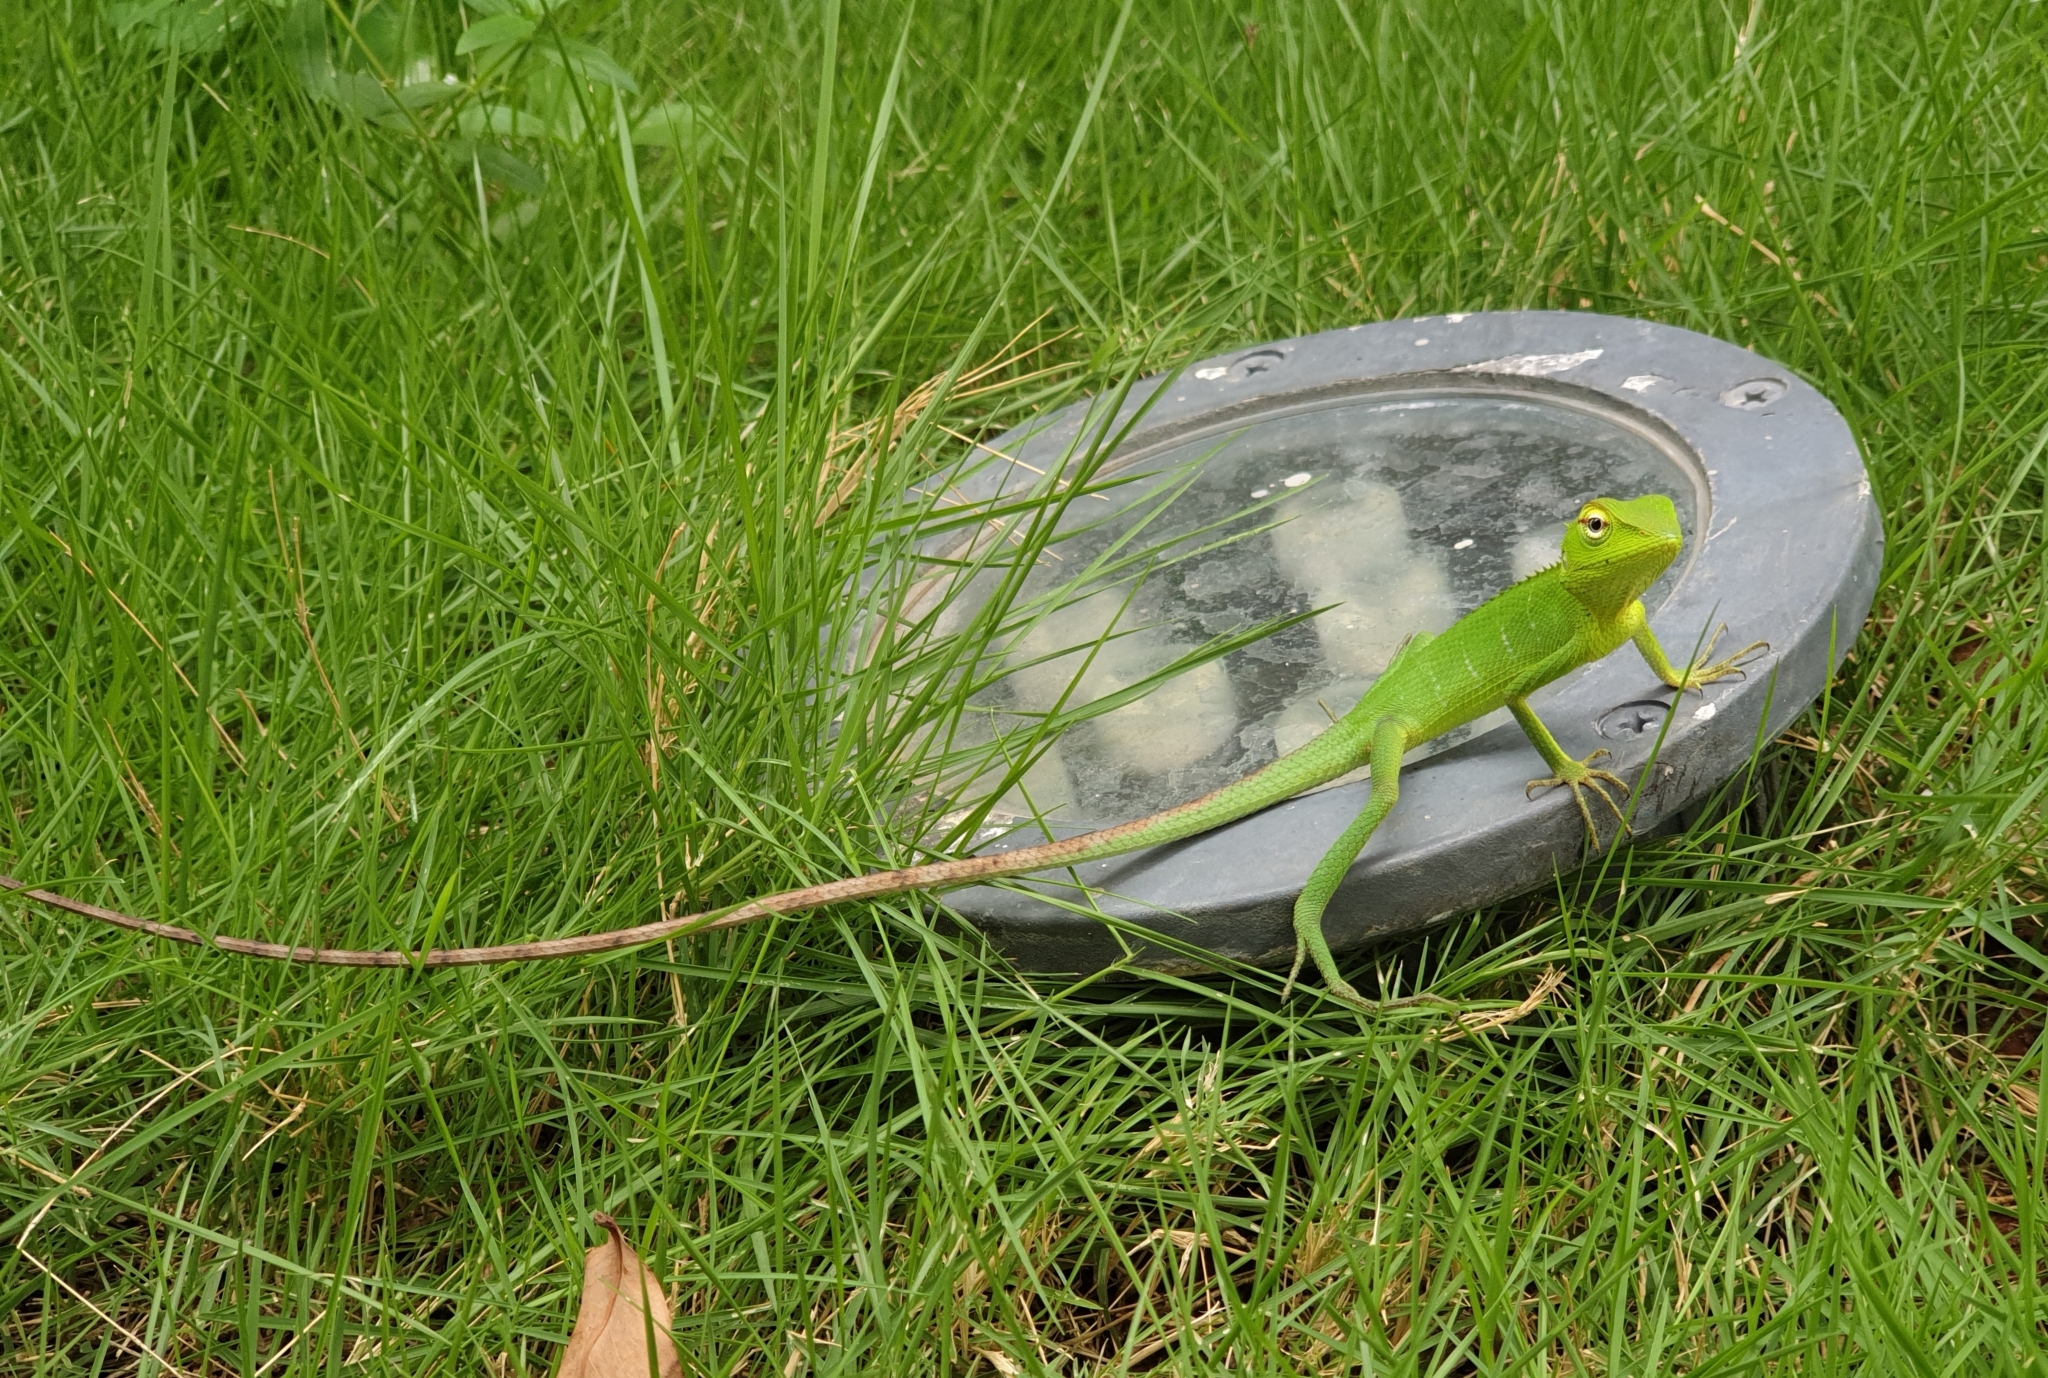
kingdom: Animalia
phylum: Chordata
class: Squamata
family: Agamidae
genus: Calotes
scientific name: Calotes calotes
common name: Common green forest lizard
